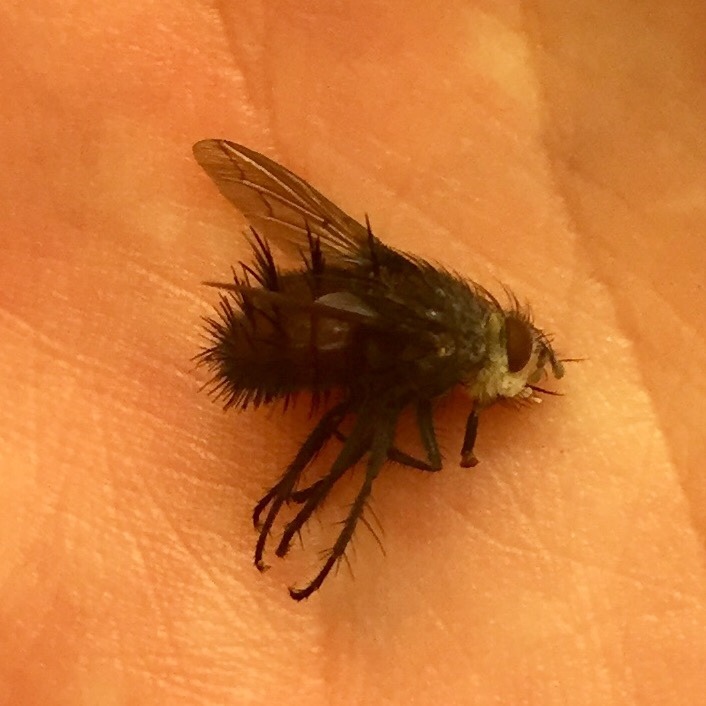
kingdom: Animalia
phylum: Arthropoda
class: Insecta
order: Diptera
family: Tachinidae
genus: Juriniopsis
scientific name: Juriniopsis adusta
